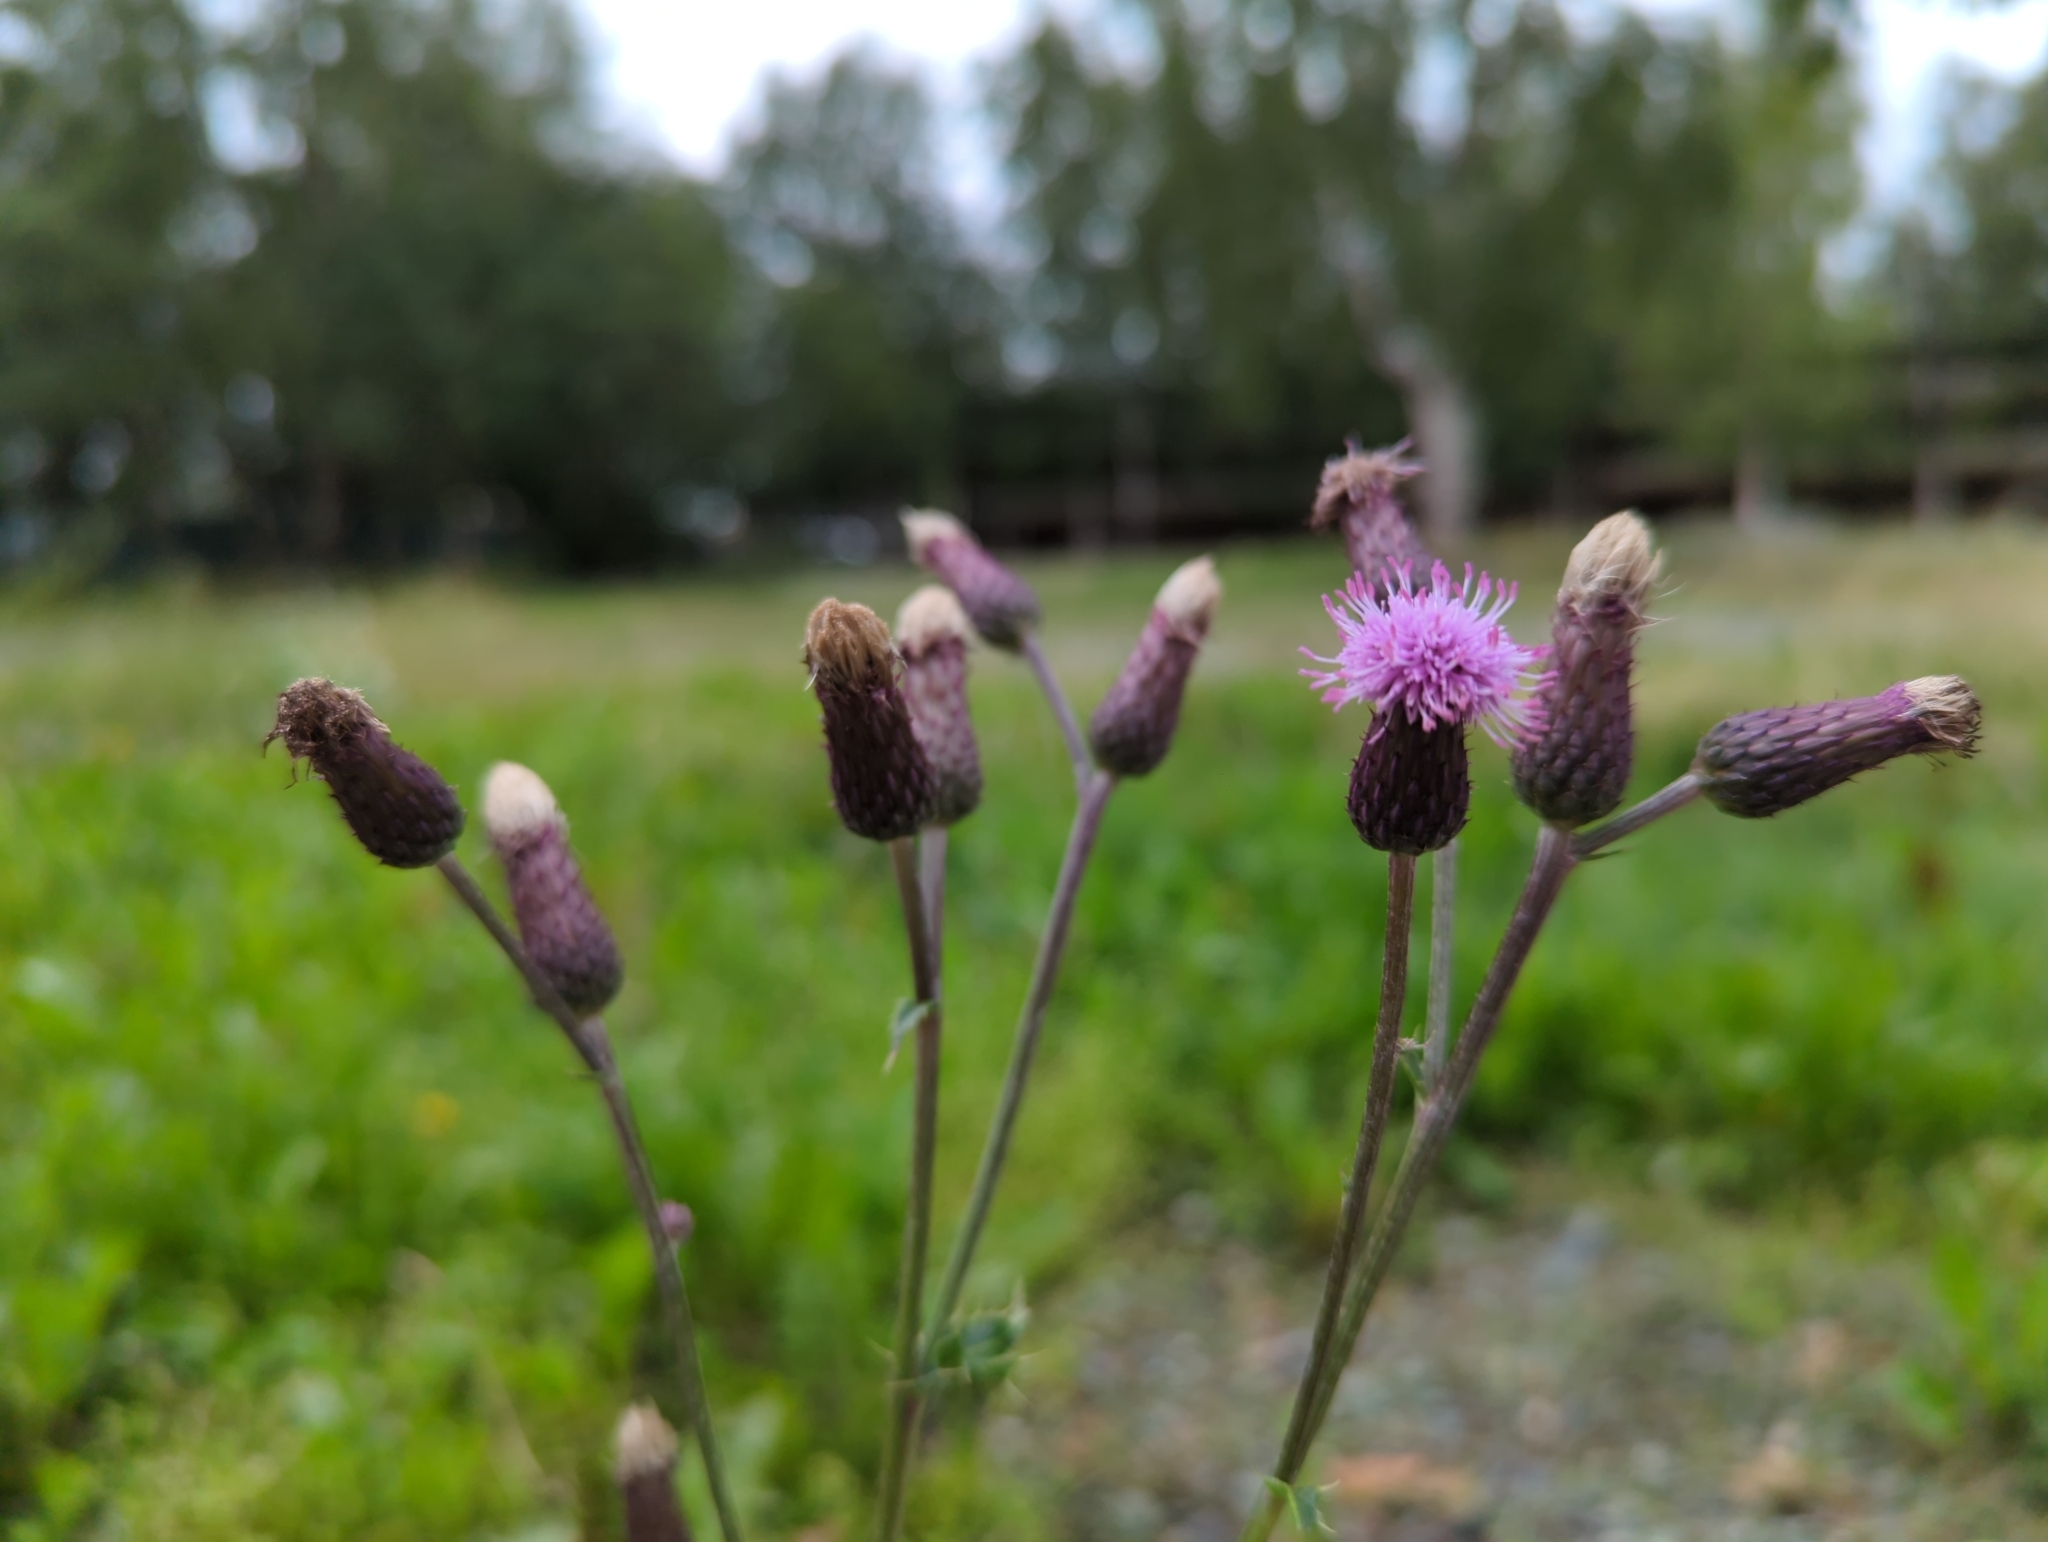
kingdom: Plantae
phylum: Tracheophyta
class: Magnoliopsida
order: Asterales
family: Asteraceae
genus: Cirsium
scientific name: Cirsium arvense
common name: Creeping thistle
